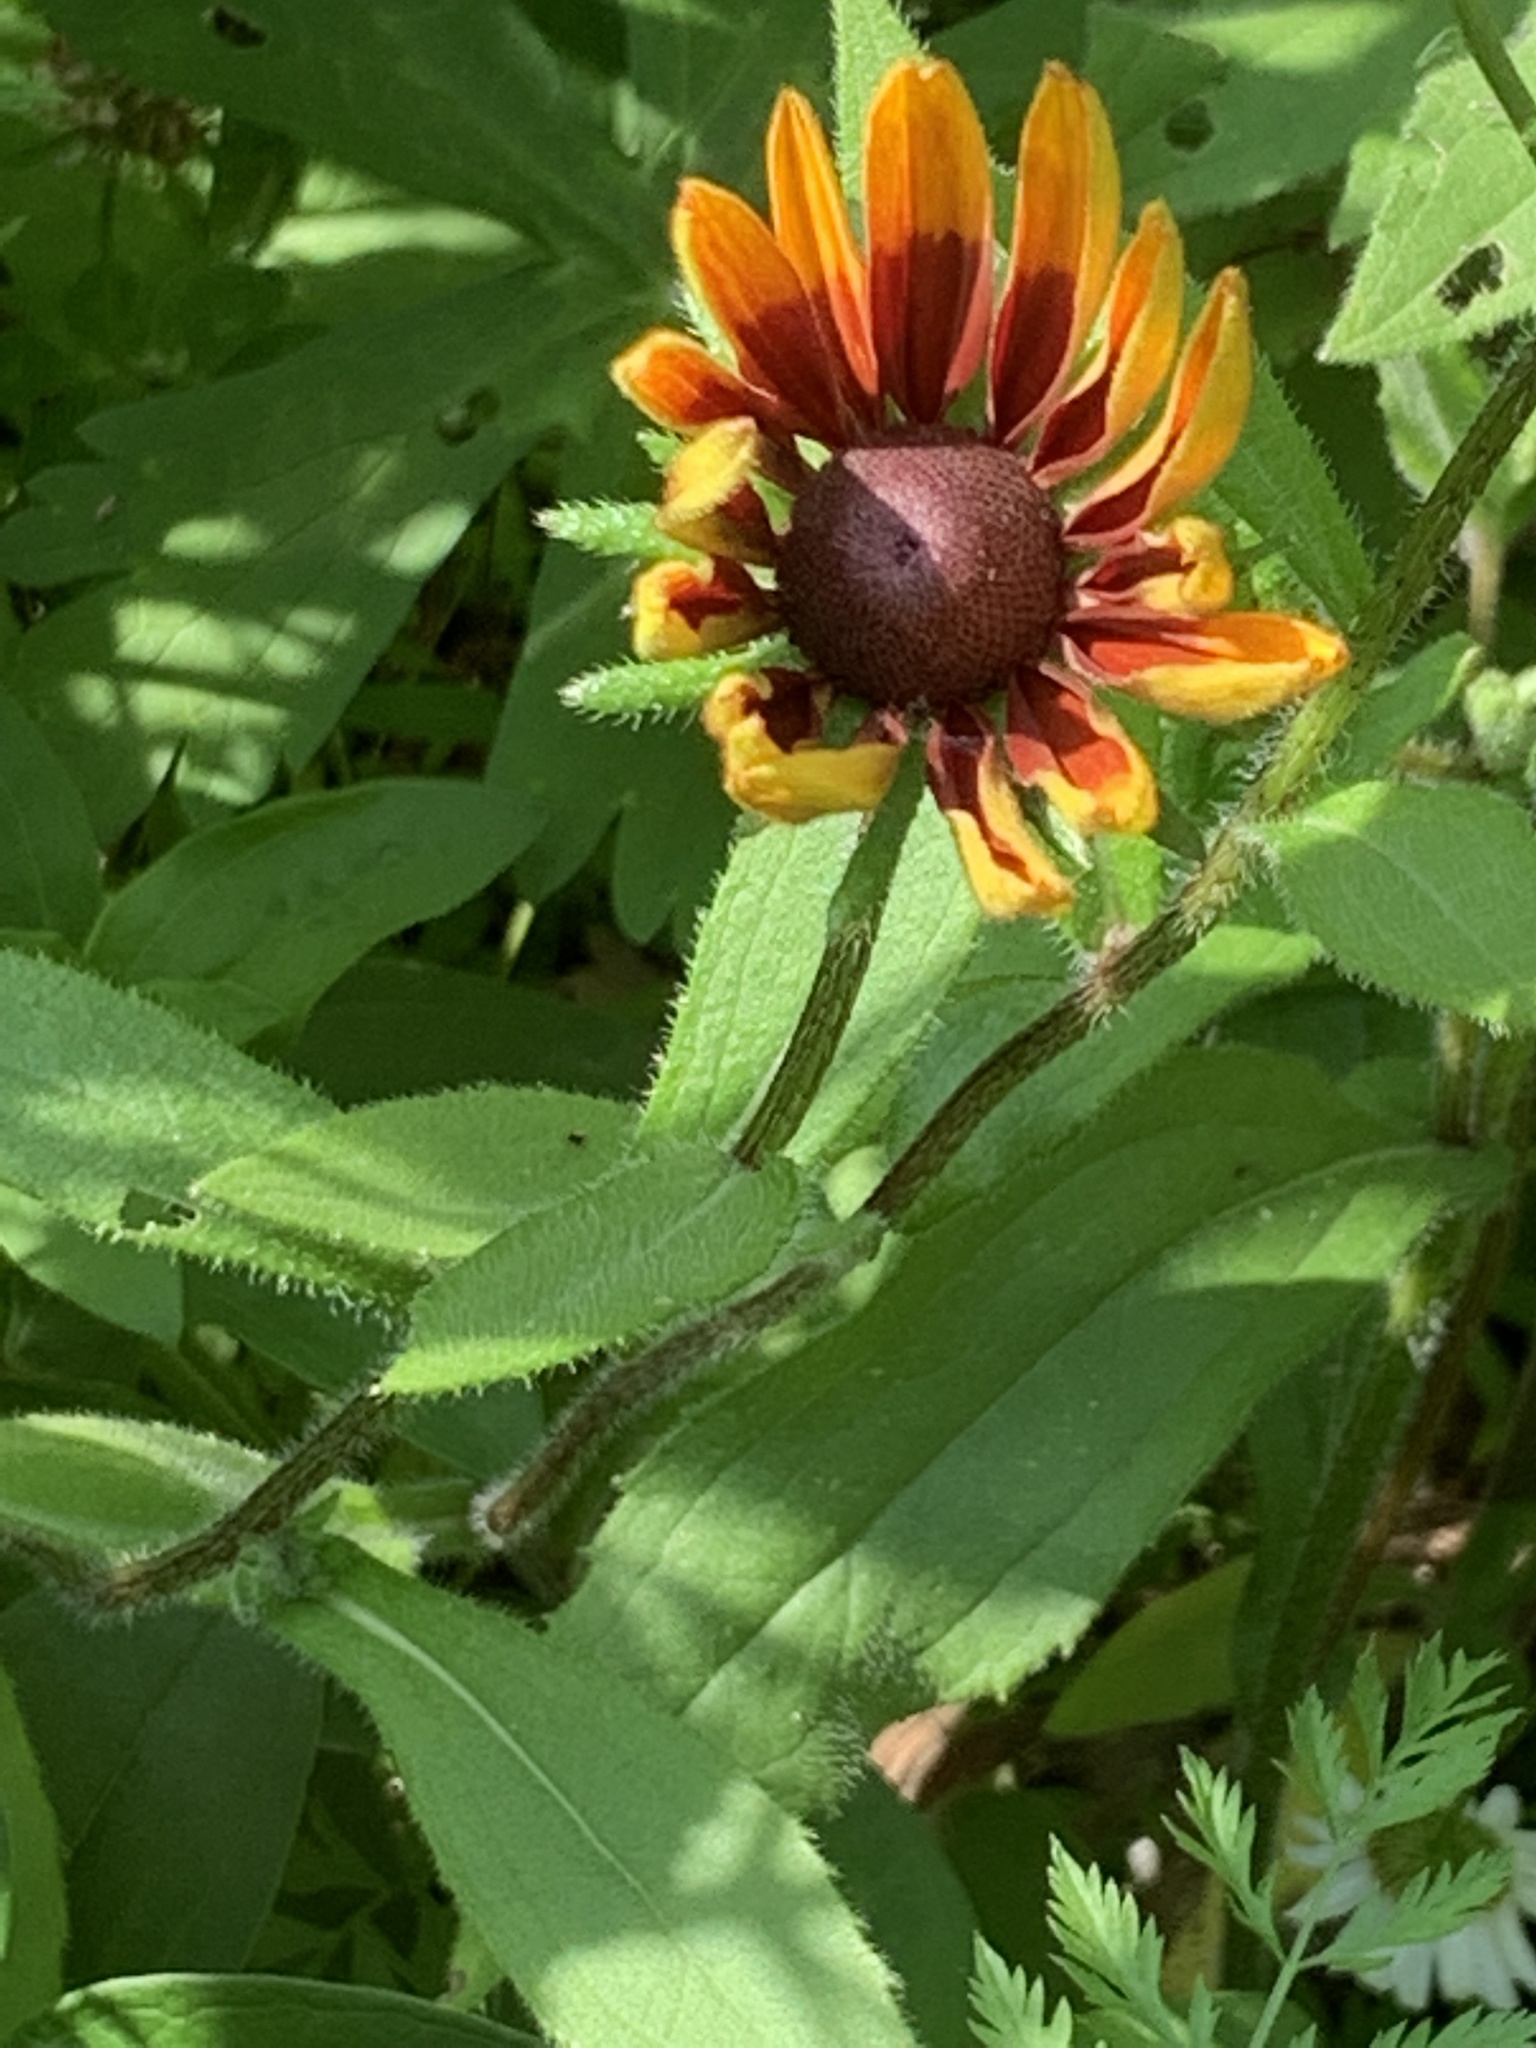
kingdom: Plantae
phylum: Tracheophyta
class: Magnoliopsida
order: Asterales
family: Asteraceae
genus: Gaillardia
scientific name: Gaillardia pulchella
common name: Firewheel
